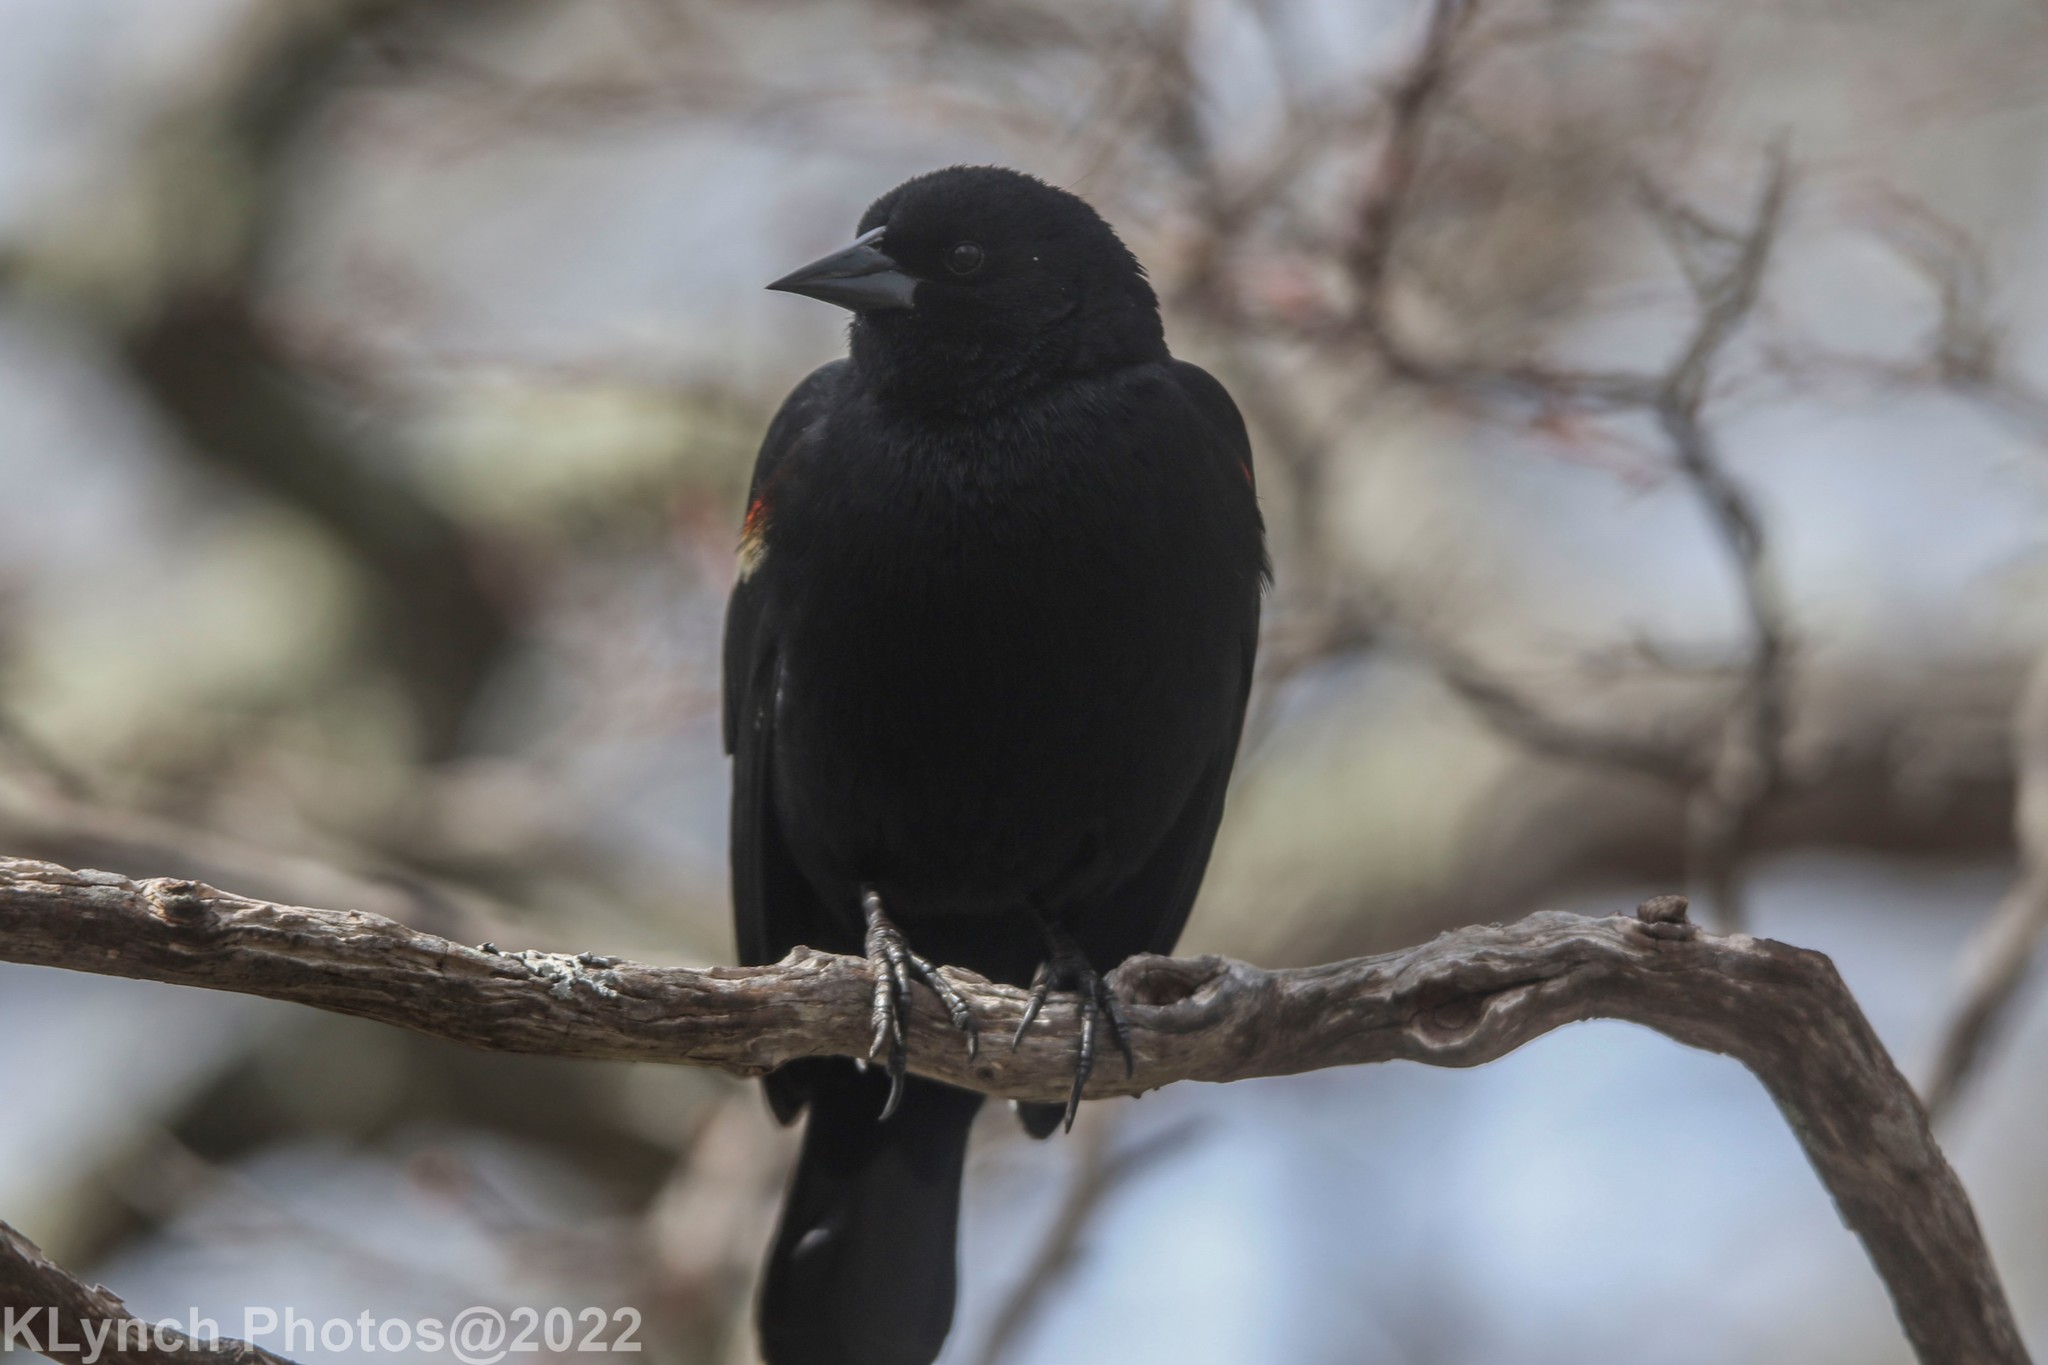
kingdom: Animalia
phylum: Chordata
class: Aves
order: Passeriformes
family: Icteridae
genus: Agelaius
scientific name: Agelaius phoeniceus
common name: Red-winged blackbird
